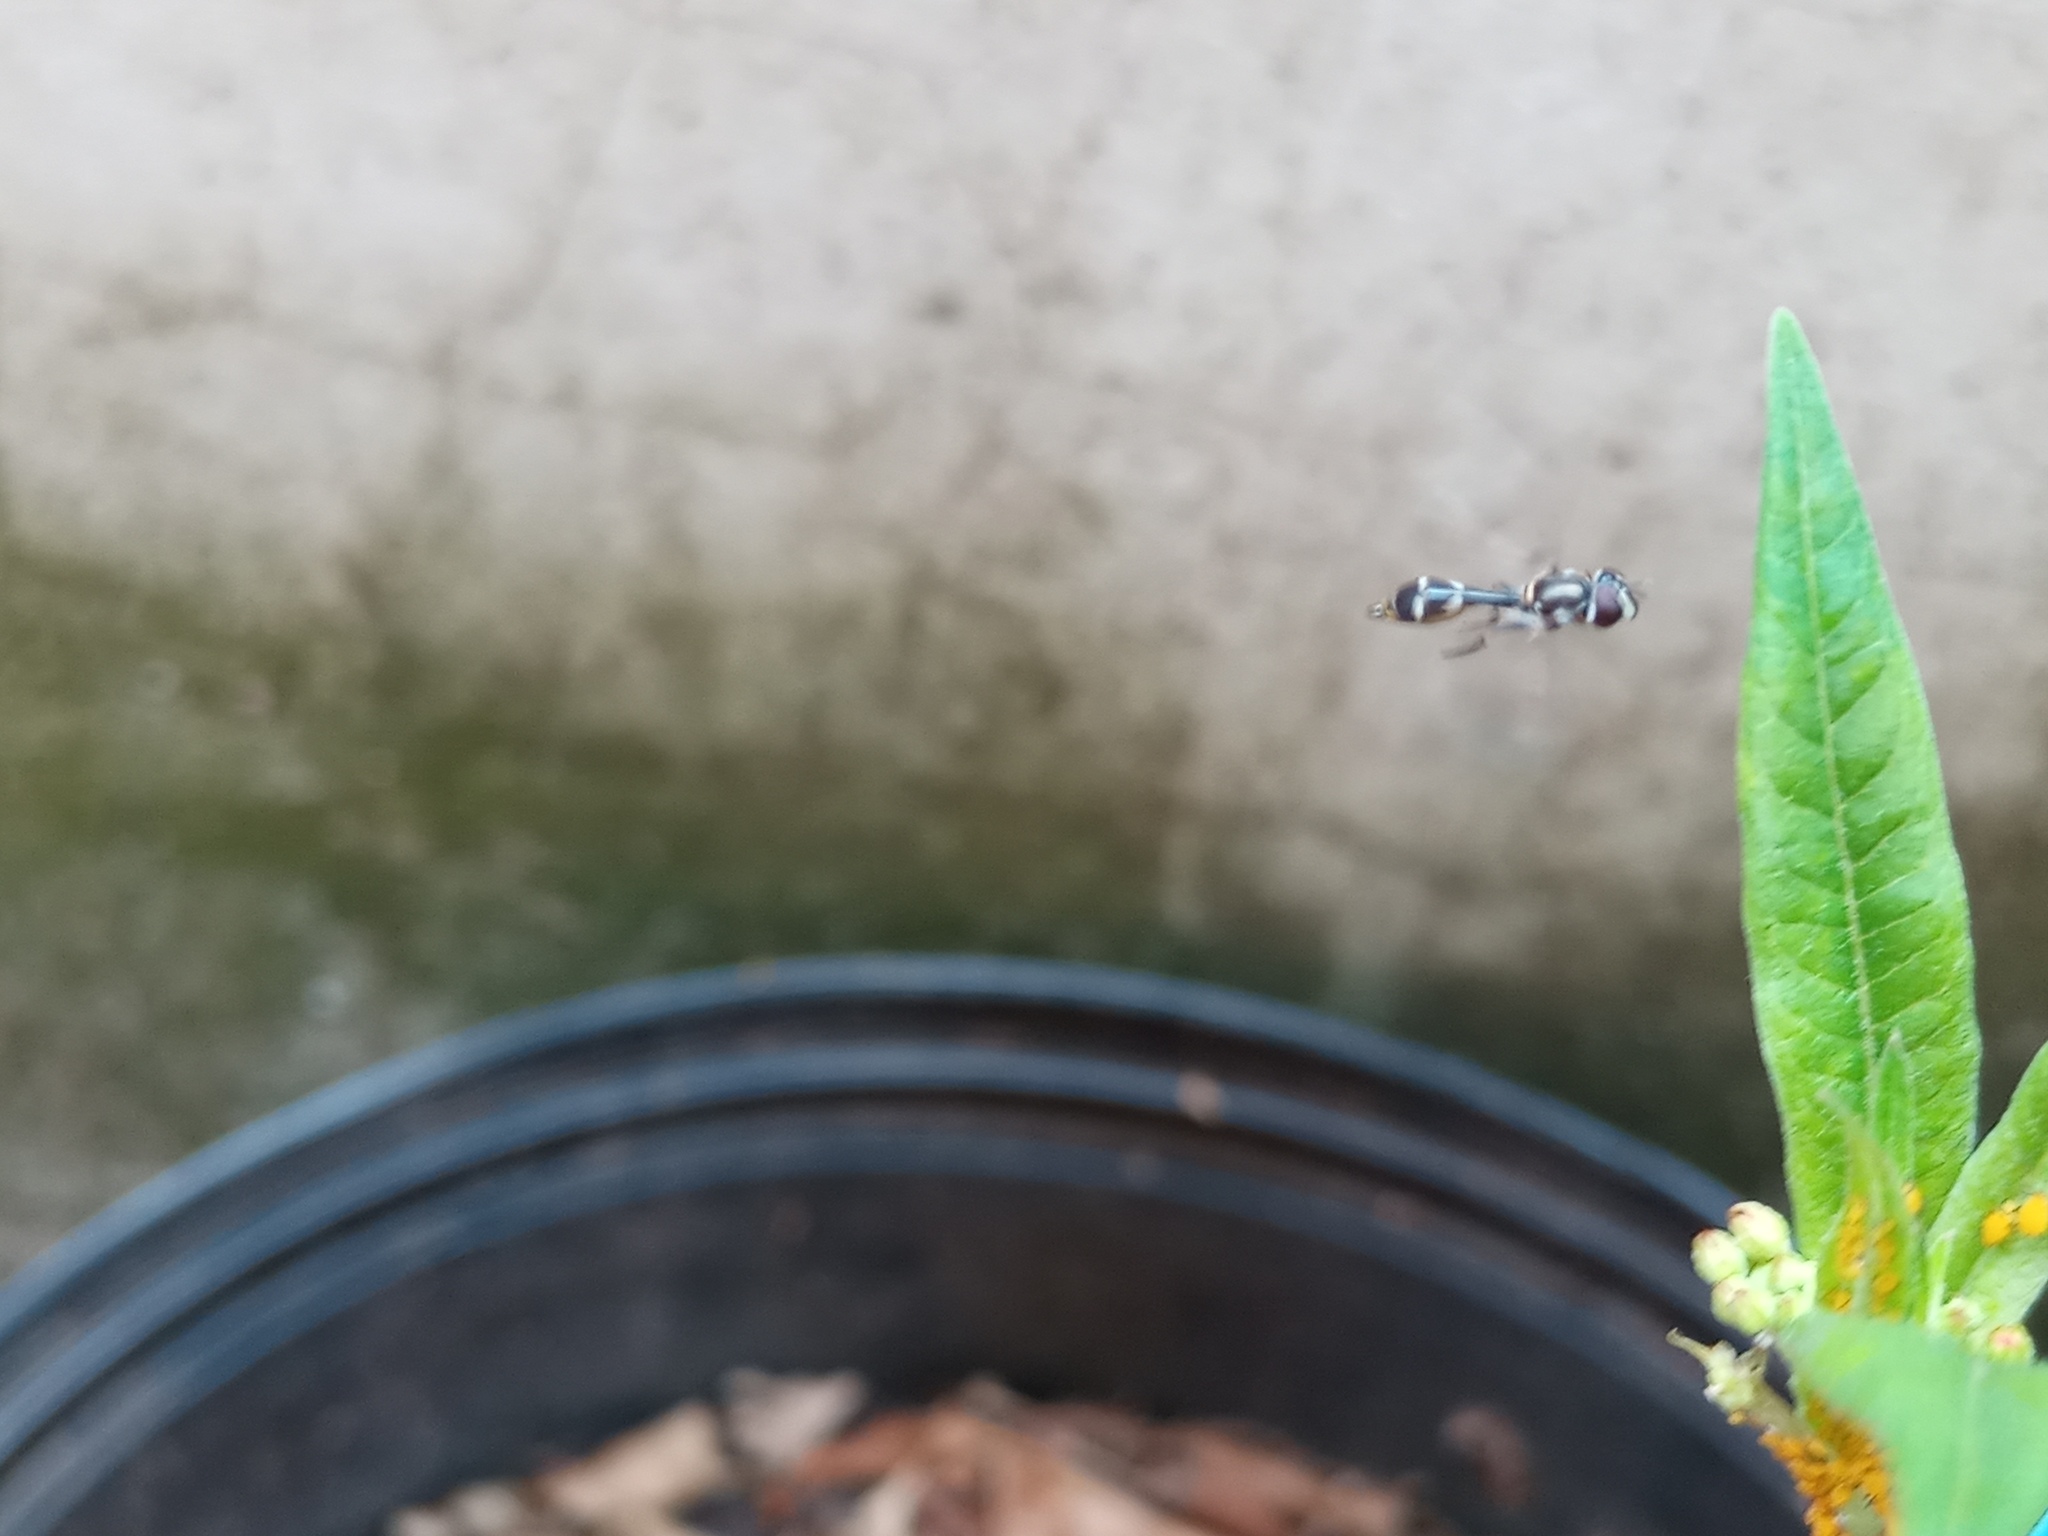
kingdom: Animalia
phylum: Arthropoda
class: Insecta
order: Diptera
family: Syrphidae
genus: Dioprosopa
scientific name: Dioprosopa clavatus
